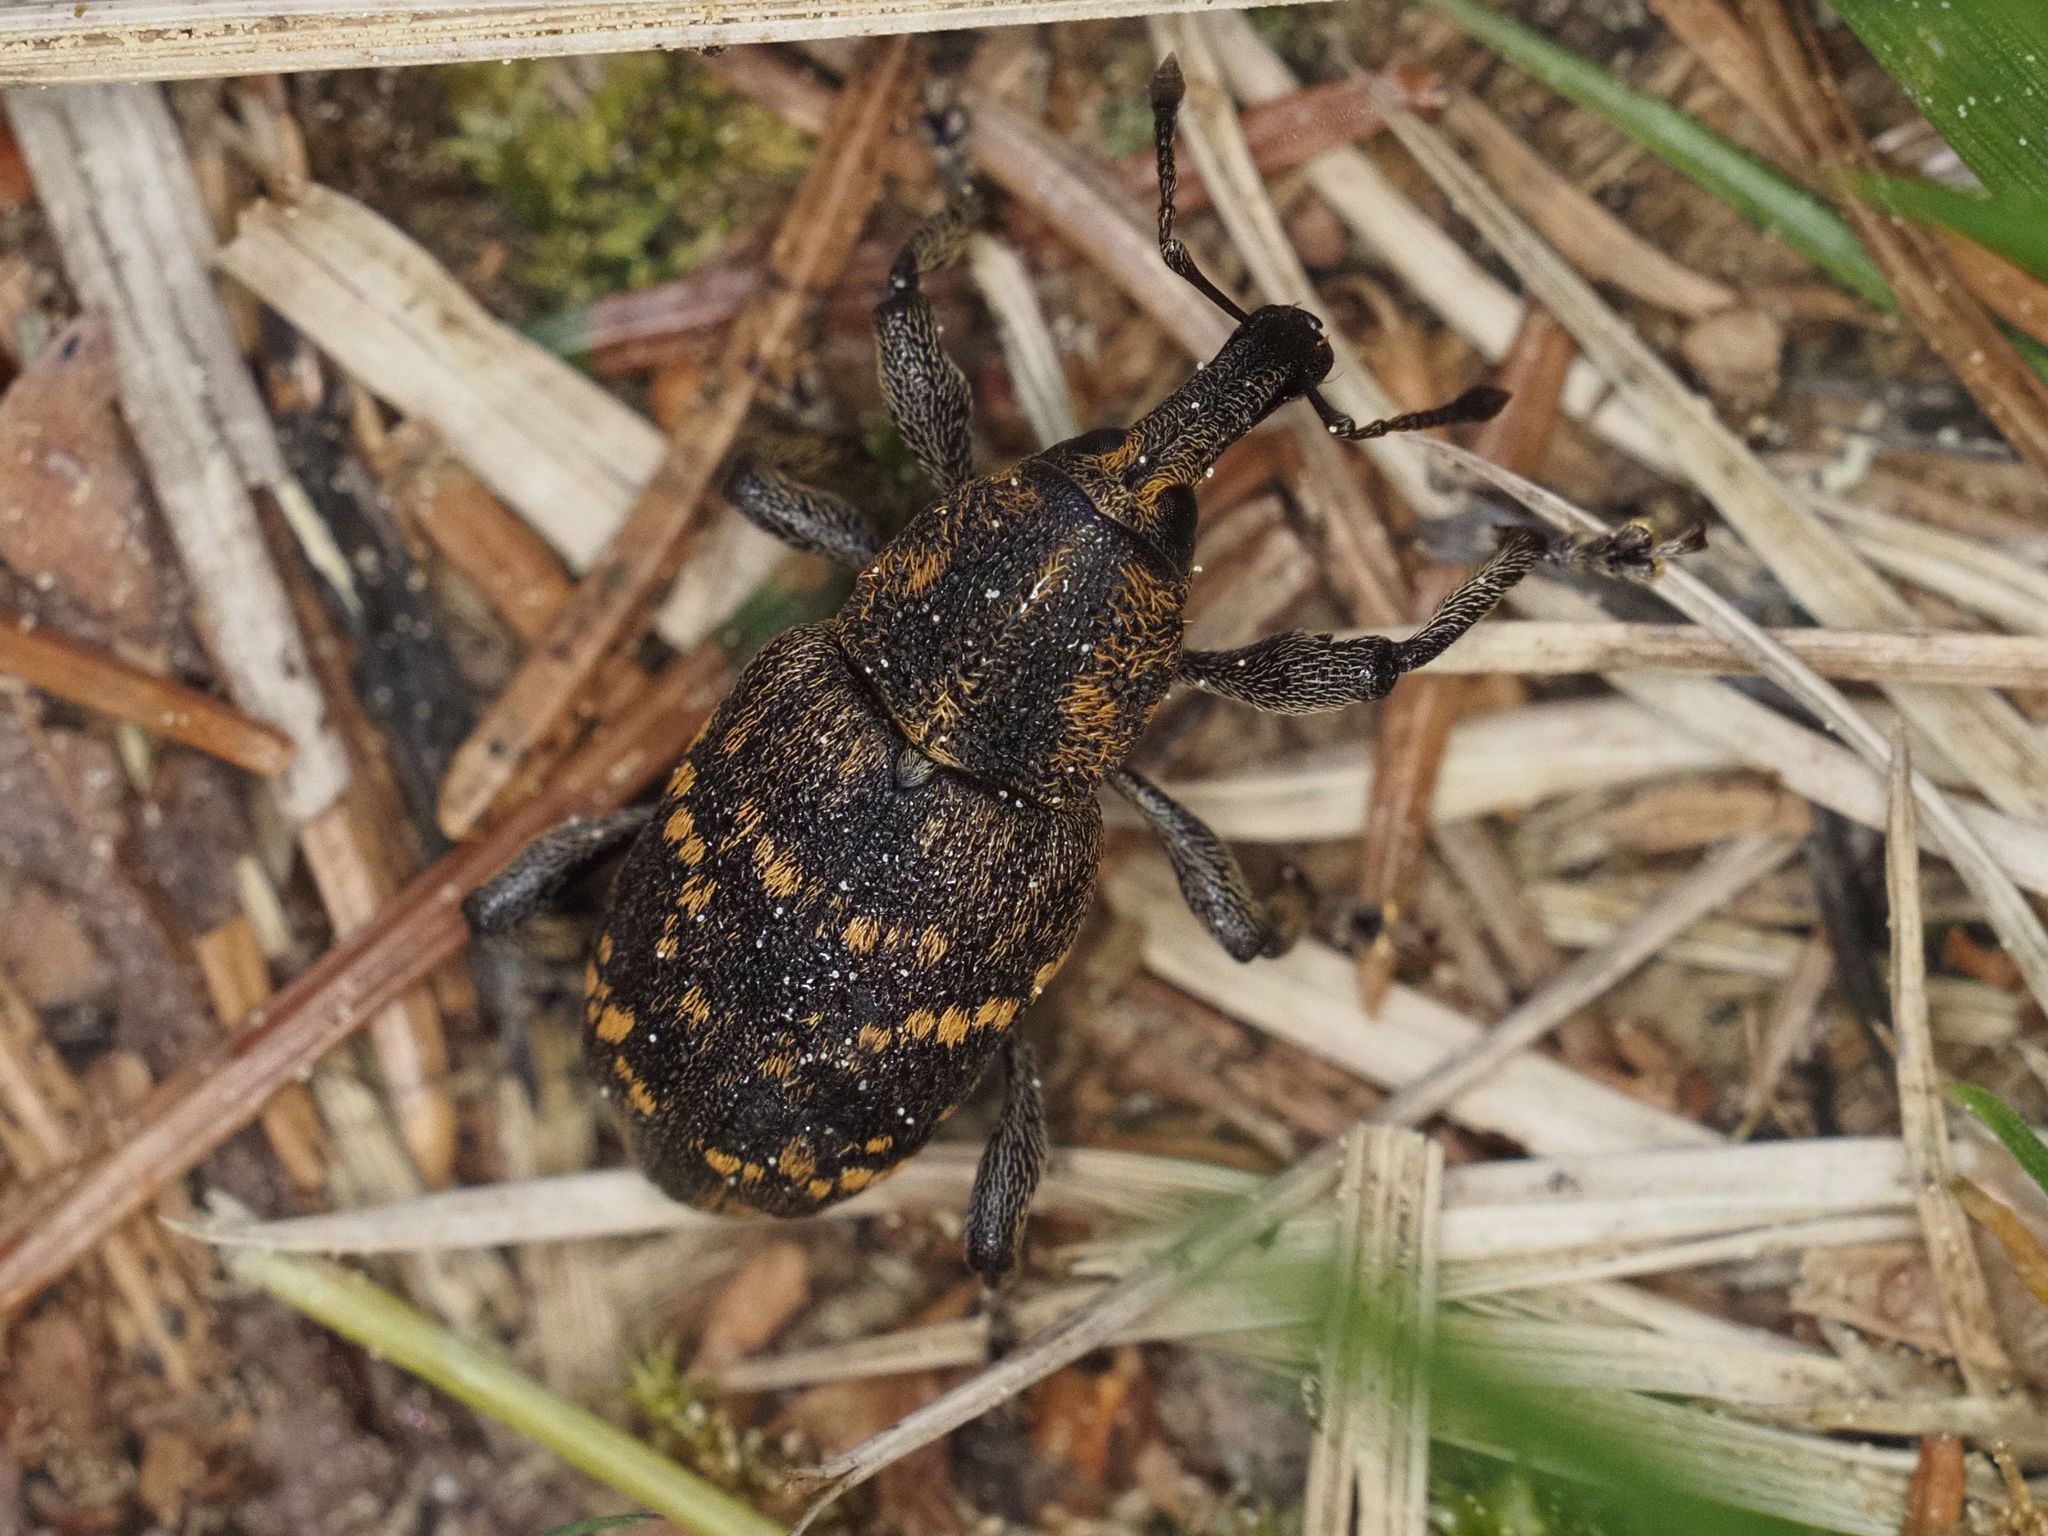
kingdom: Animalia
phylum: Arthropoda
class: Insecta
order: Coleoptera
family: Curculionidae
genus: Hylobius
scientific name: Hylobius abietis
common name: Large pine weevil
